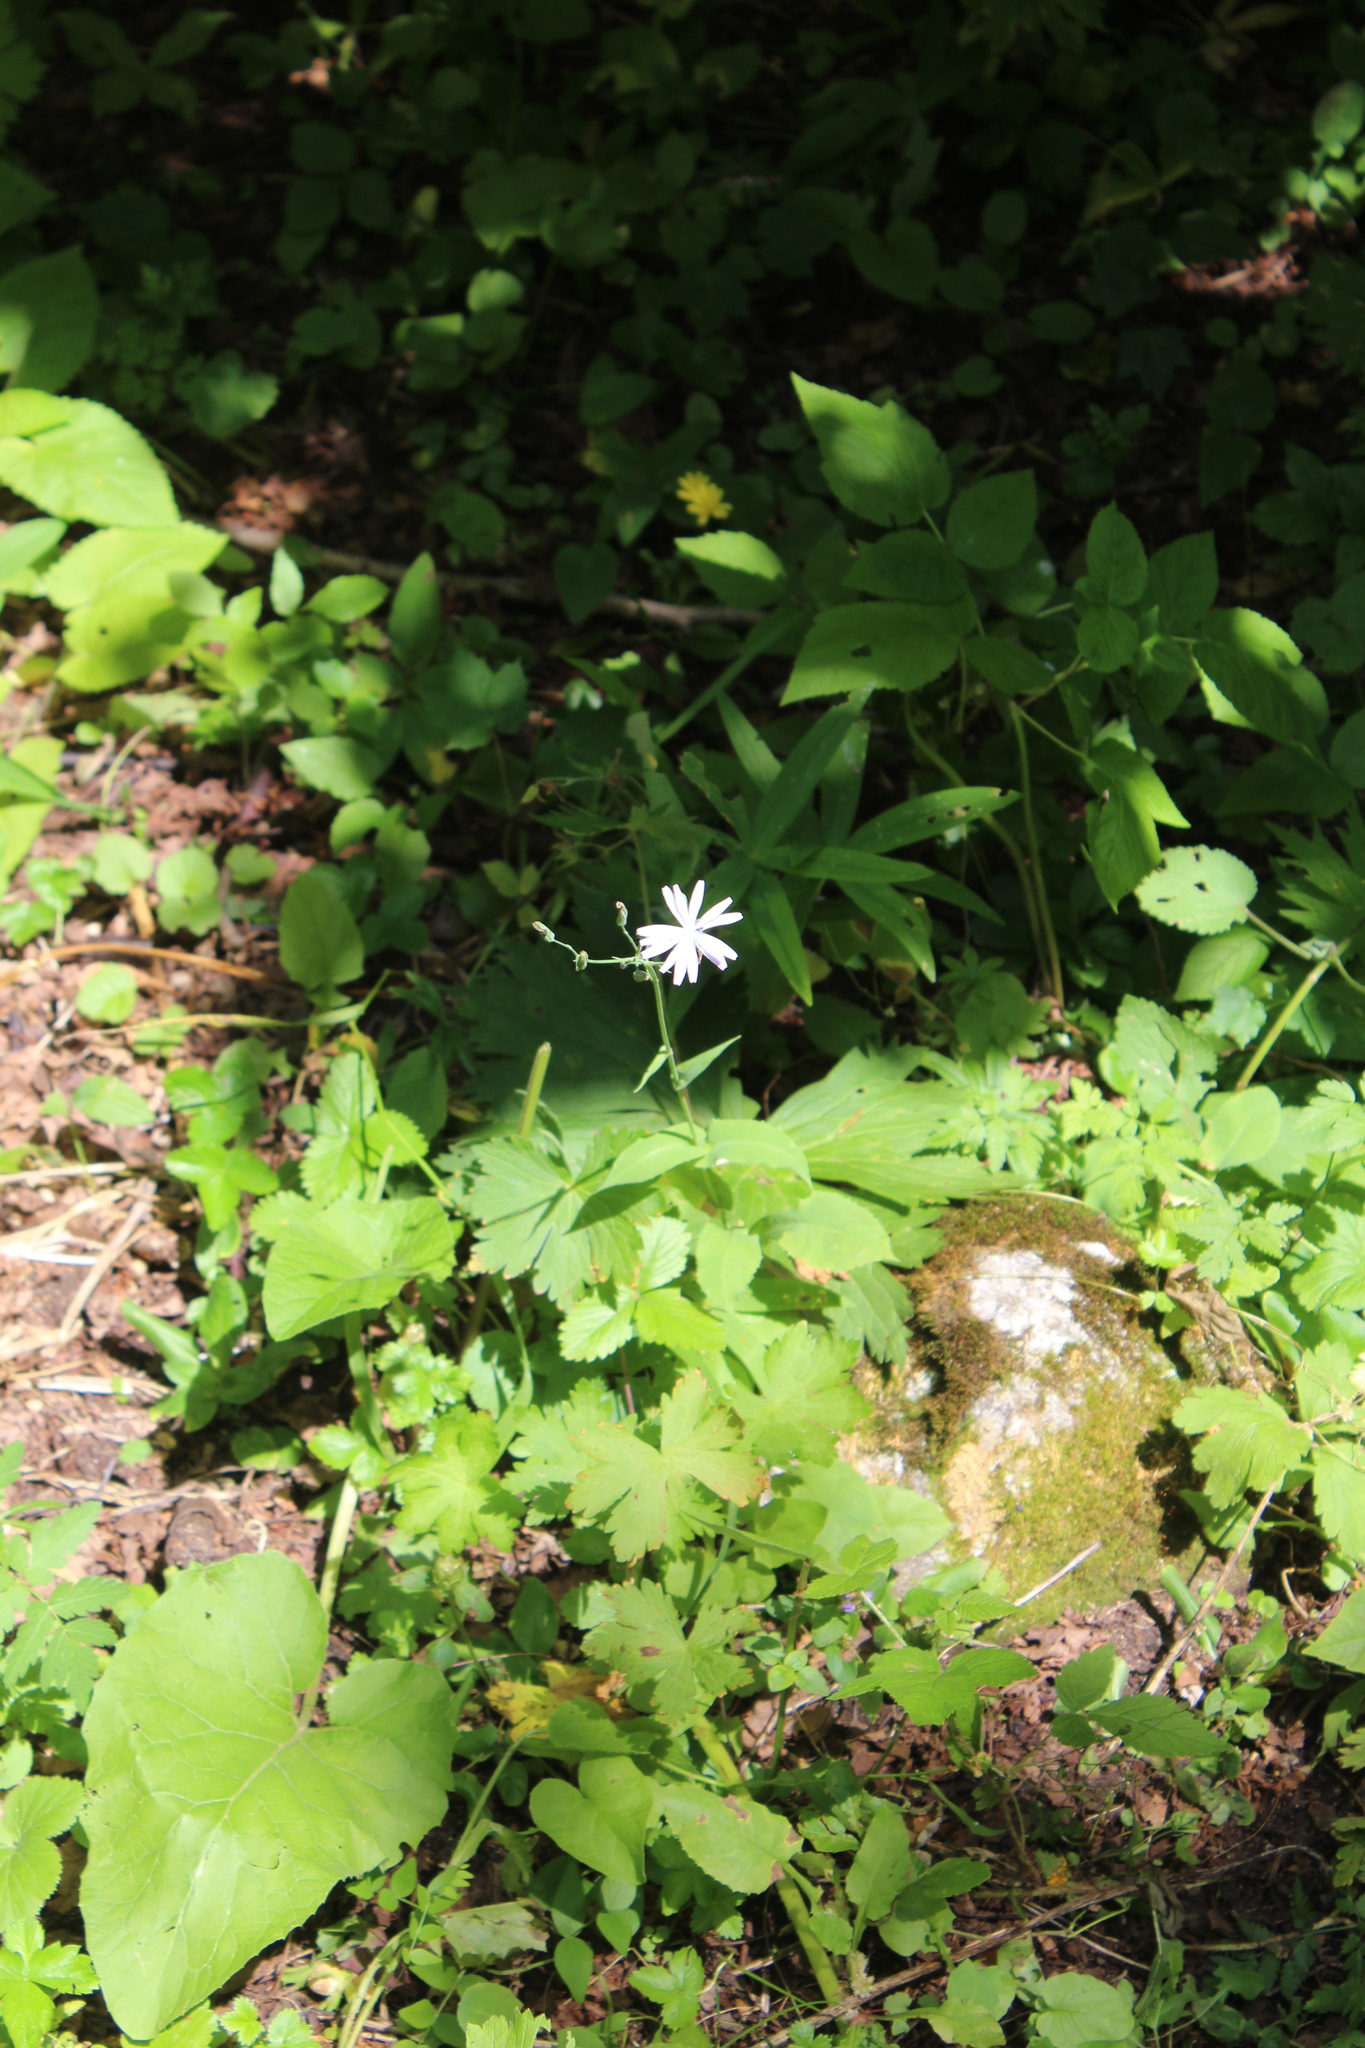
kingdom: Plantae
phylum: Tracheophyta
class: Magnoliopsida
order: Asterales
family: Asteraceae
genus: Lactuca
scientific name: Lactuca racemosa
